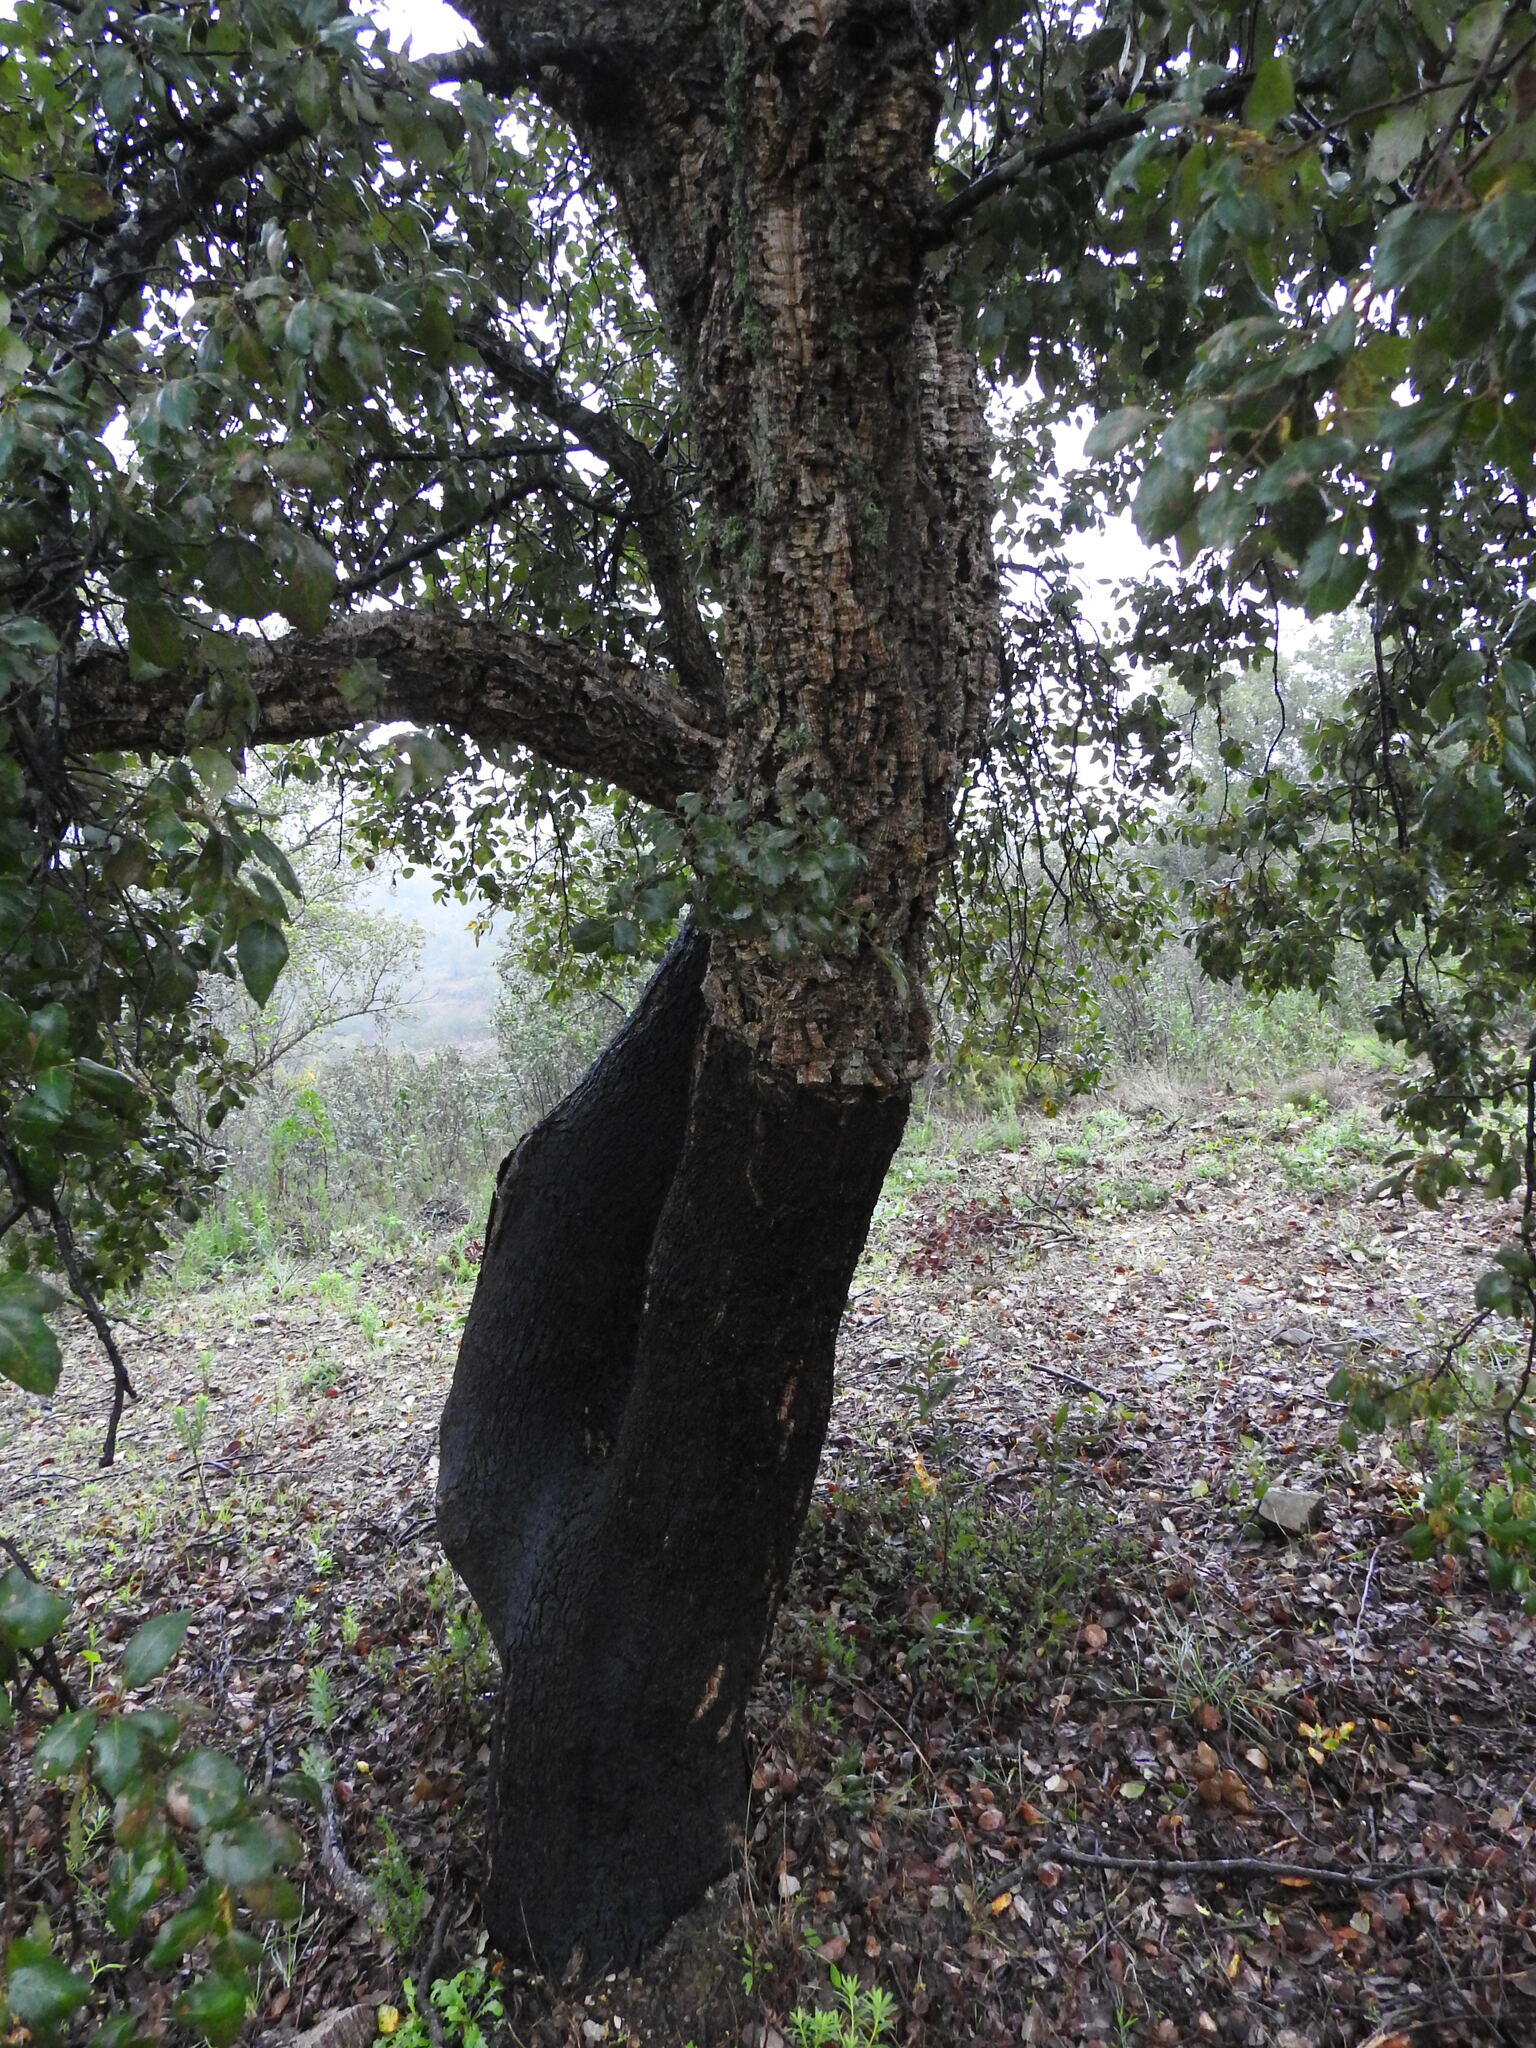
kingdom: Plantae
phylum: Tracheophyta
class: Magnoliopsida
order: Fagales
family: Fagaceae
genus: Quercus
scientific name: Quercus suber
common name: Cork oak
